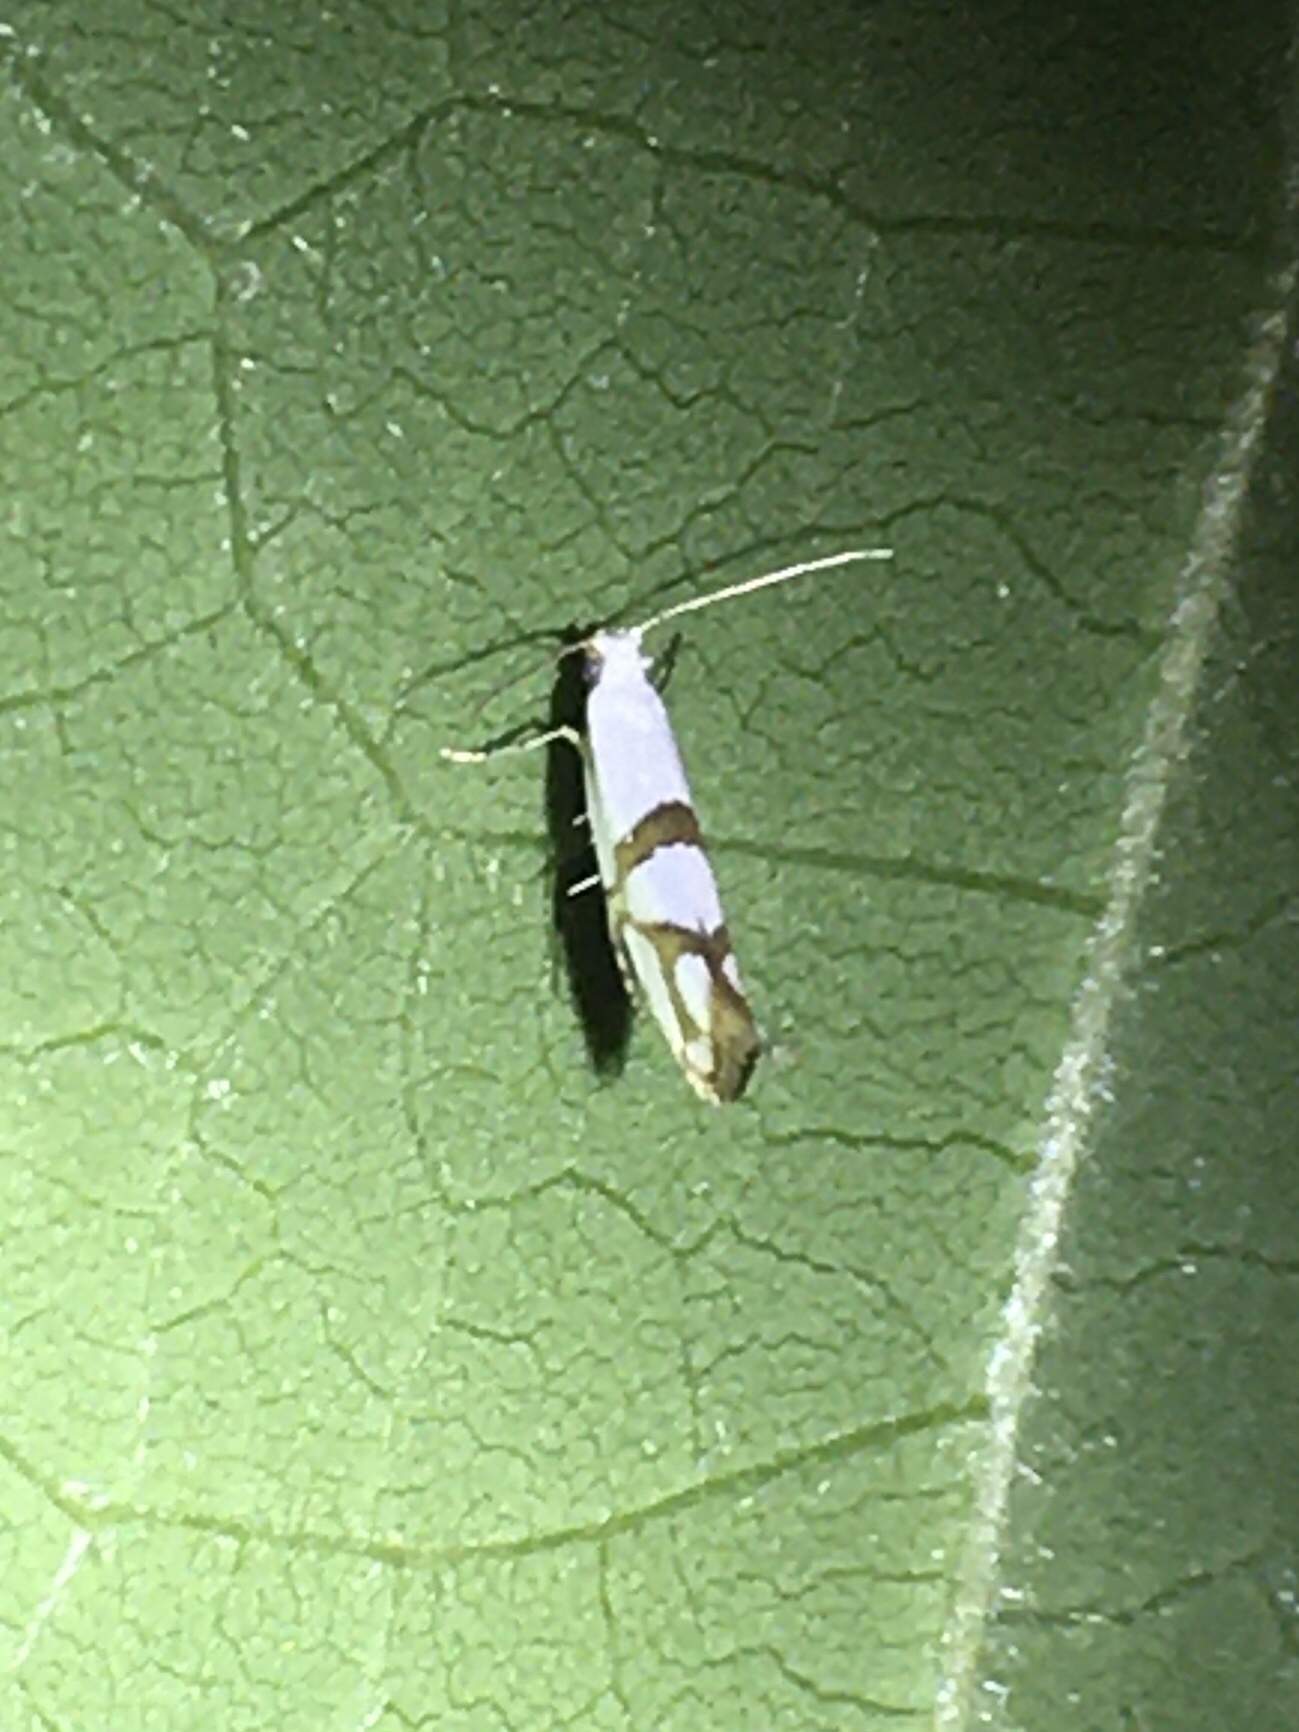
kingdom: Animalia
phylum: Arthropoda
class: Insecta
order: Lepidoptera
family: Argyresthiidae
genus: Argyresthia
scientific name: Argyresthia oreasella
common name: Cherry shoot borer moth
